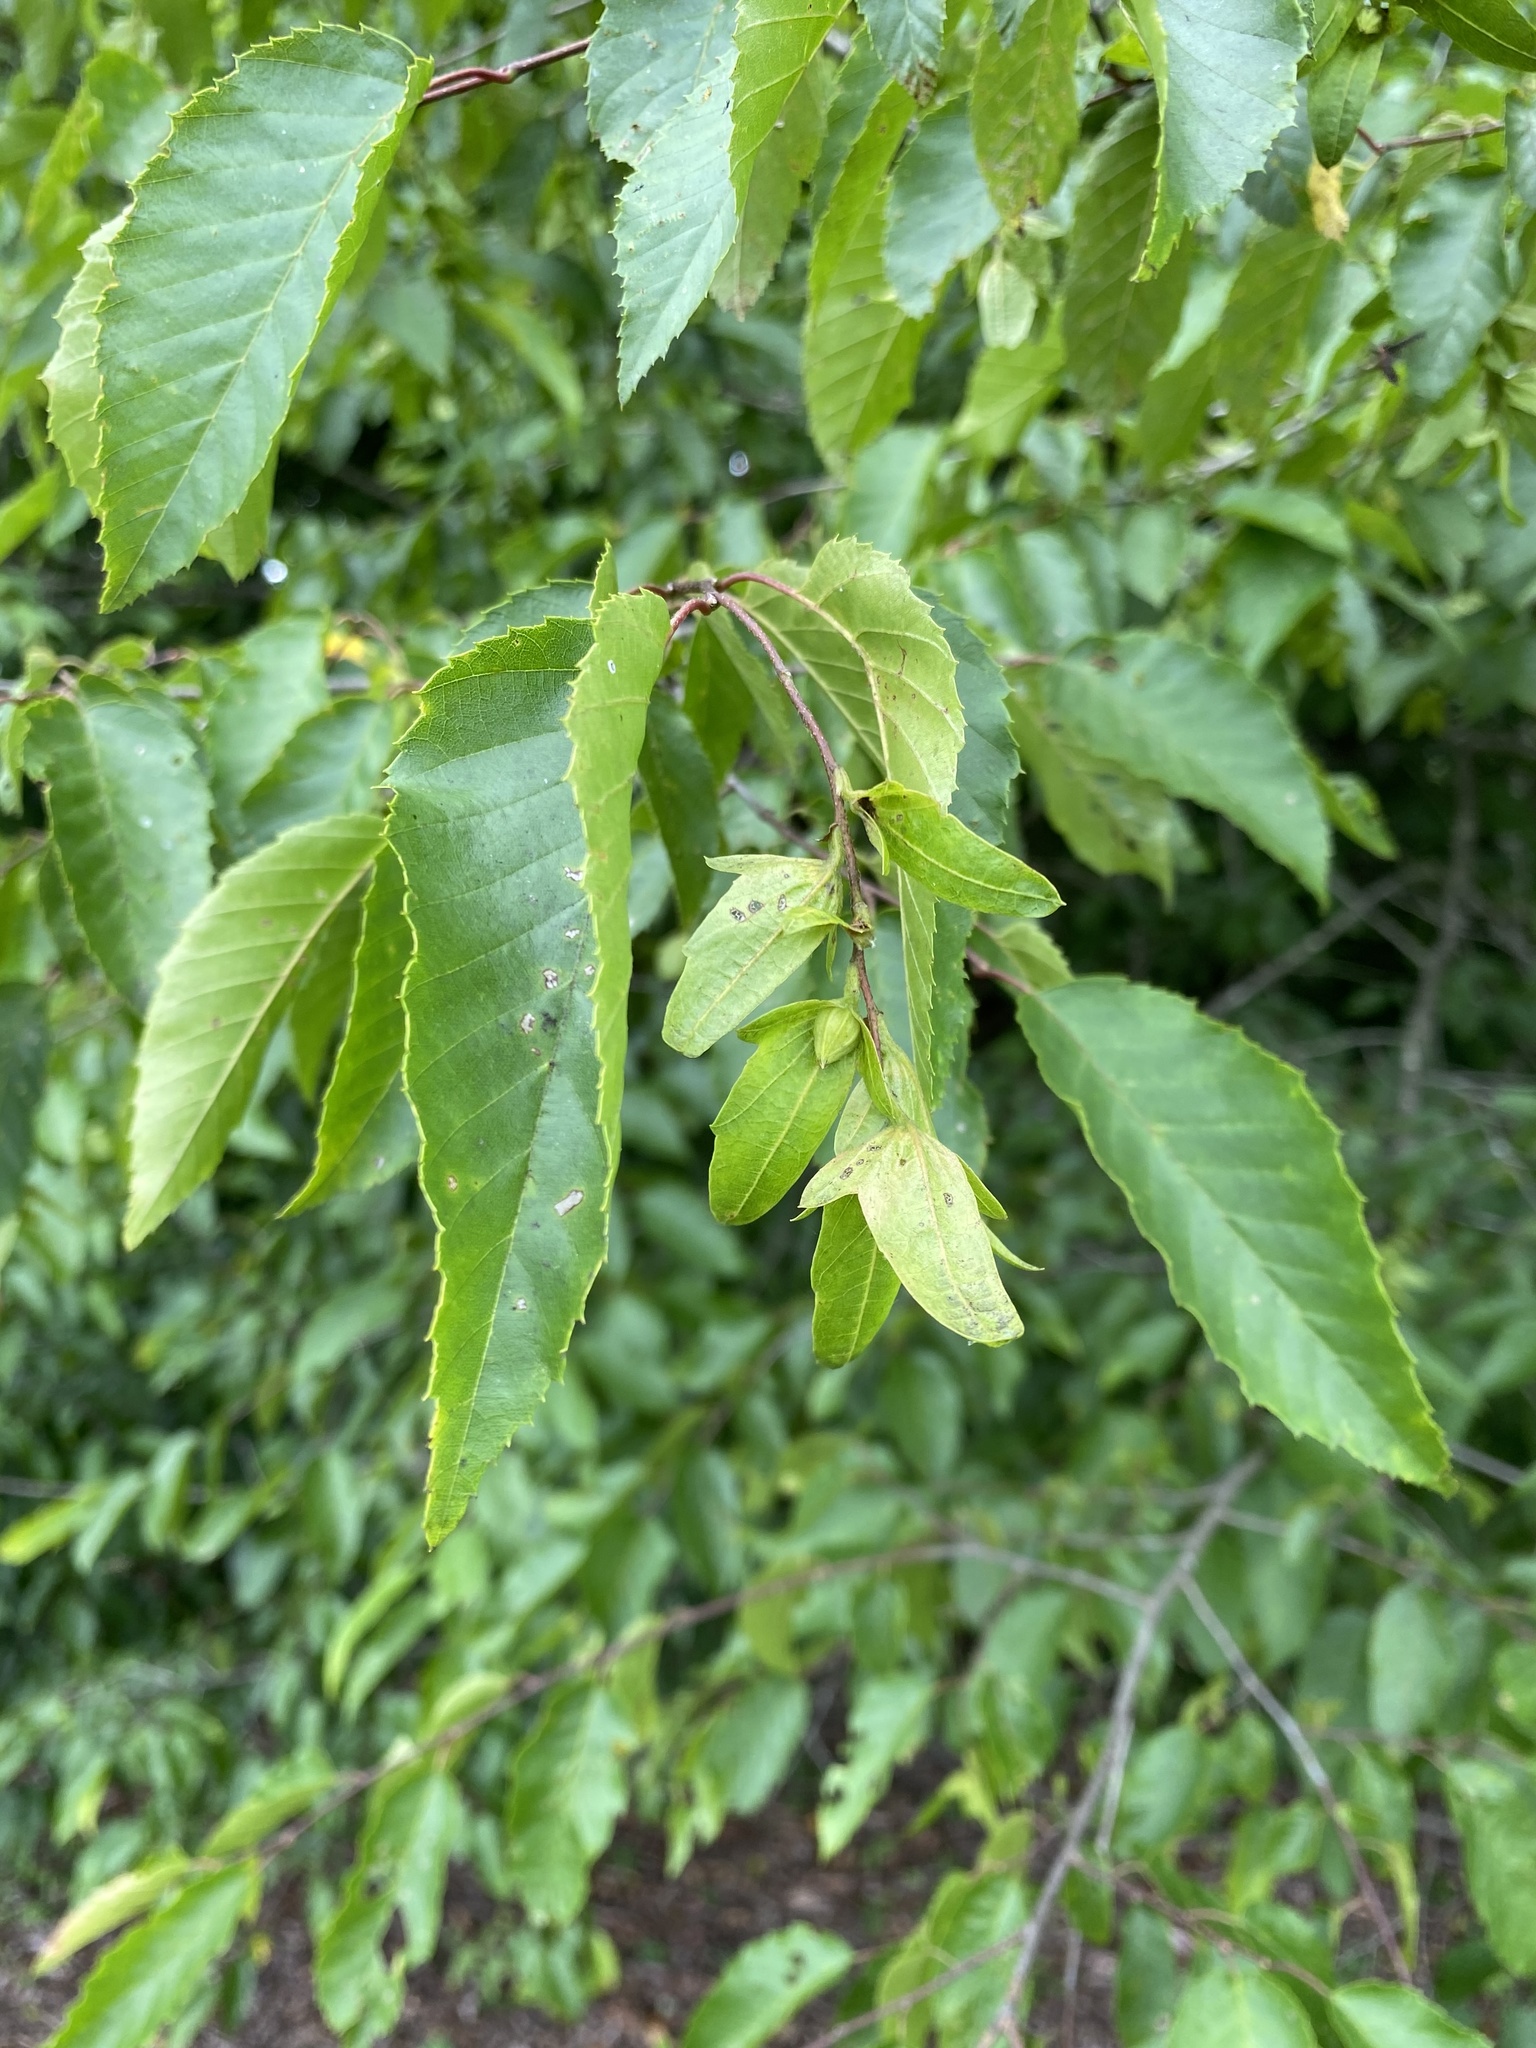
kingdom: Plantae
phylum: Tracheophyta
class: Magnoliopsida
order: Fagales
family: Betulaceae
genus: Carpinus
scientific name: Carpinus caroliniana
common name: American hornbeam
